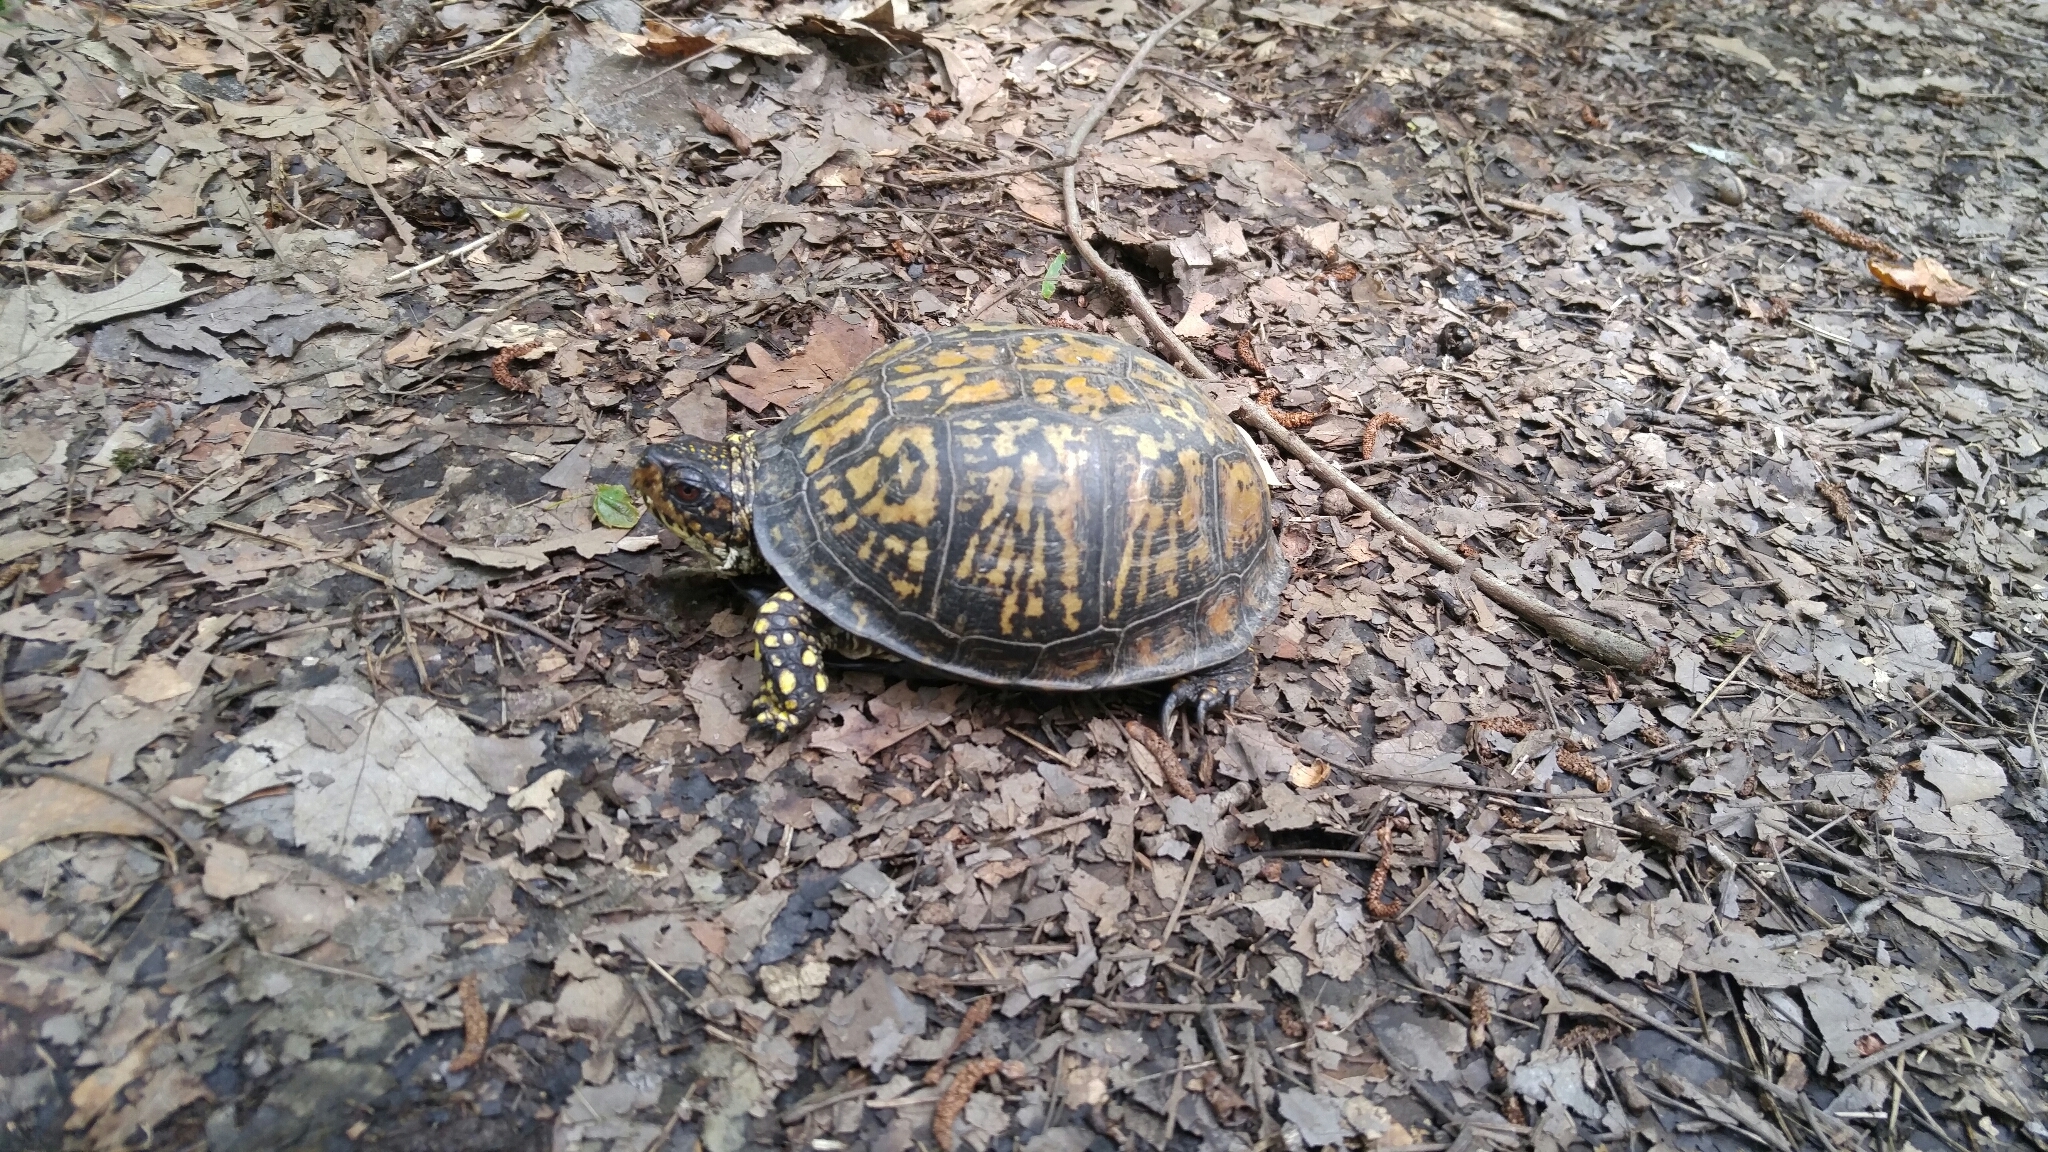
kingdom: Animalia
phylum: Chordata
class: Testudines
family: Emydidae
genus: Terrapene
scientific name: Terrapene carolina
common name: Common box turtle
